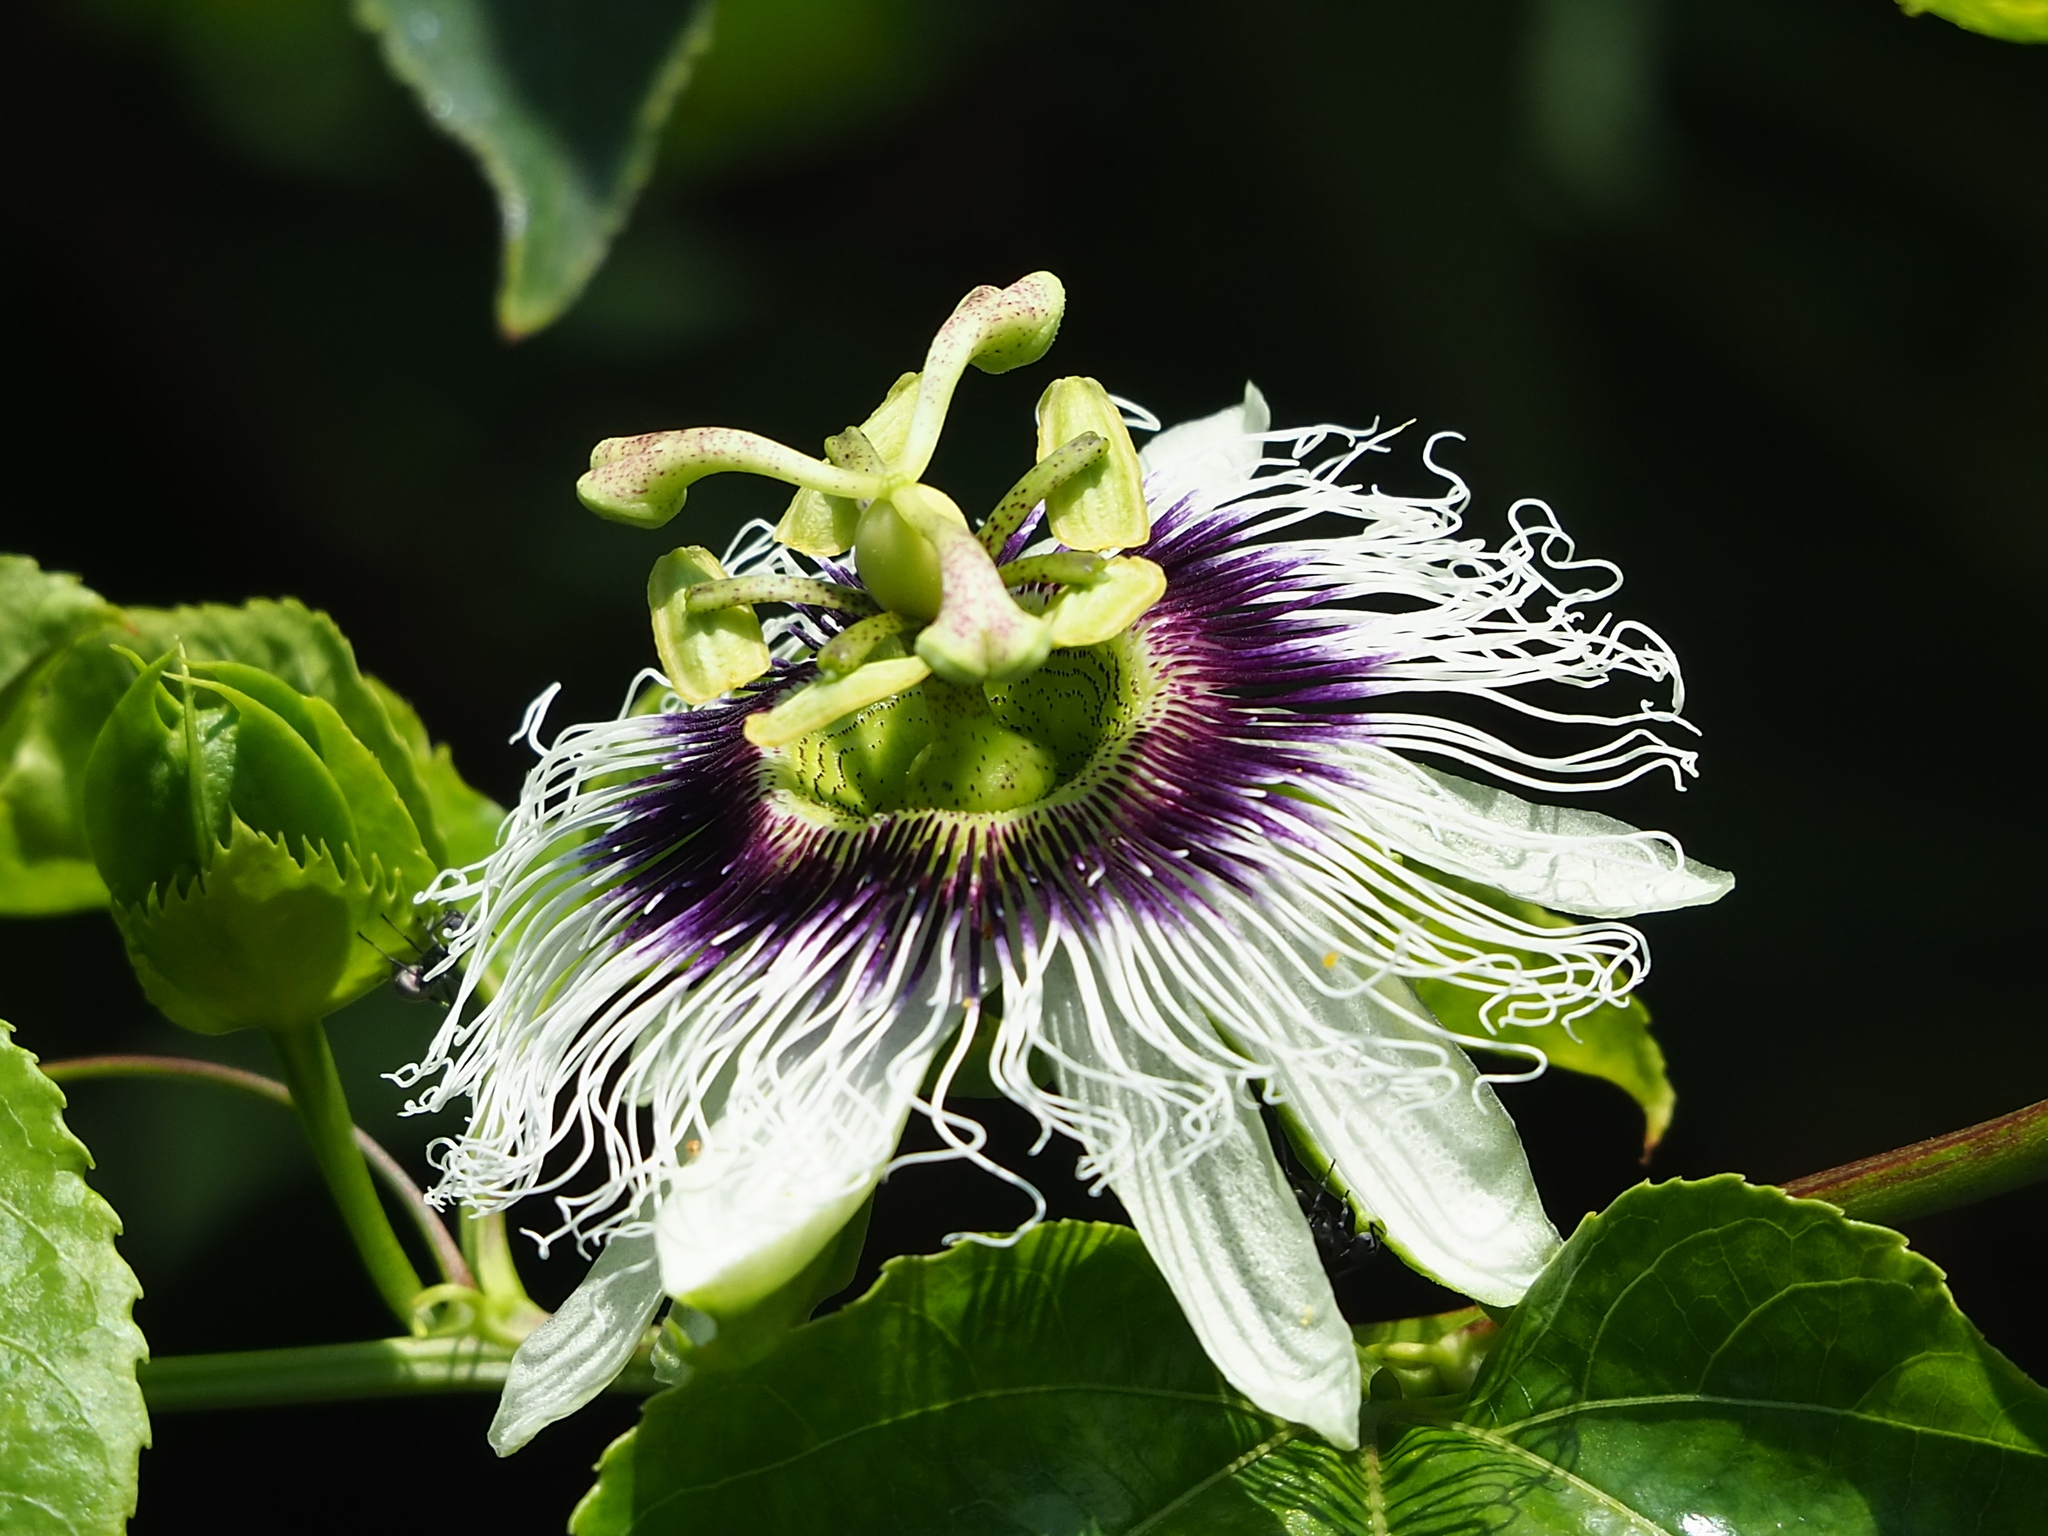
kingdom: Plantae
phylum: Tracheophyta
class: Magnoliopsida
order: Malpighiales
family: Passifloraceae
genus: Passiflora
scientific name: Passiflora edulis
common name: Purple granadilla
